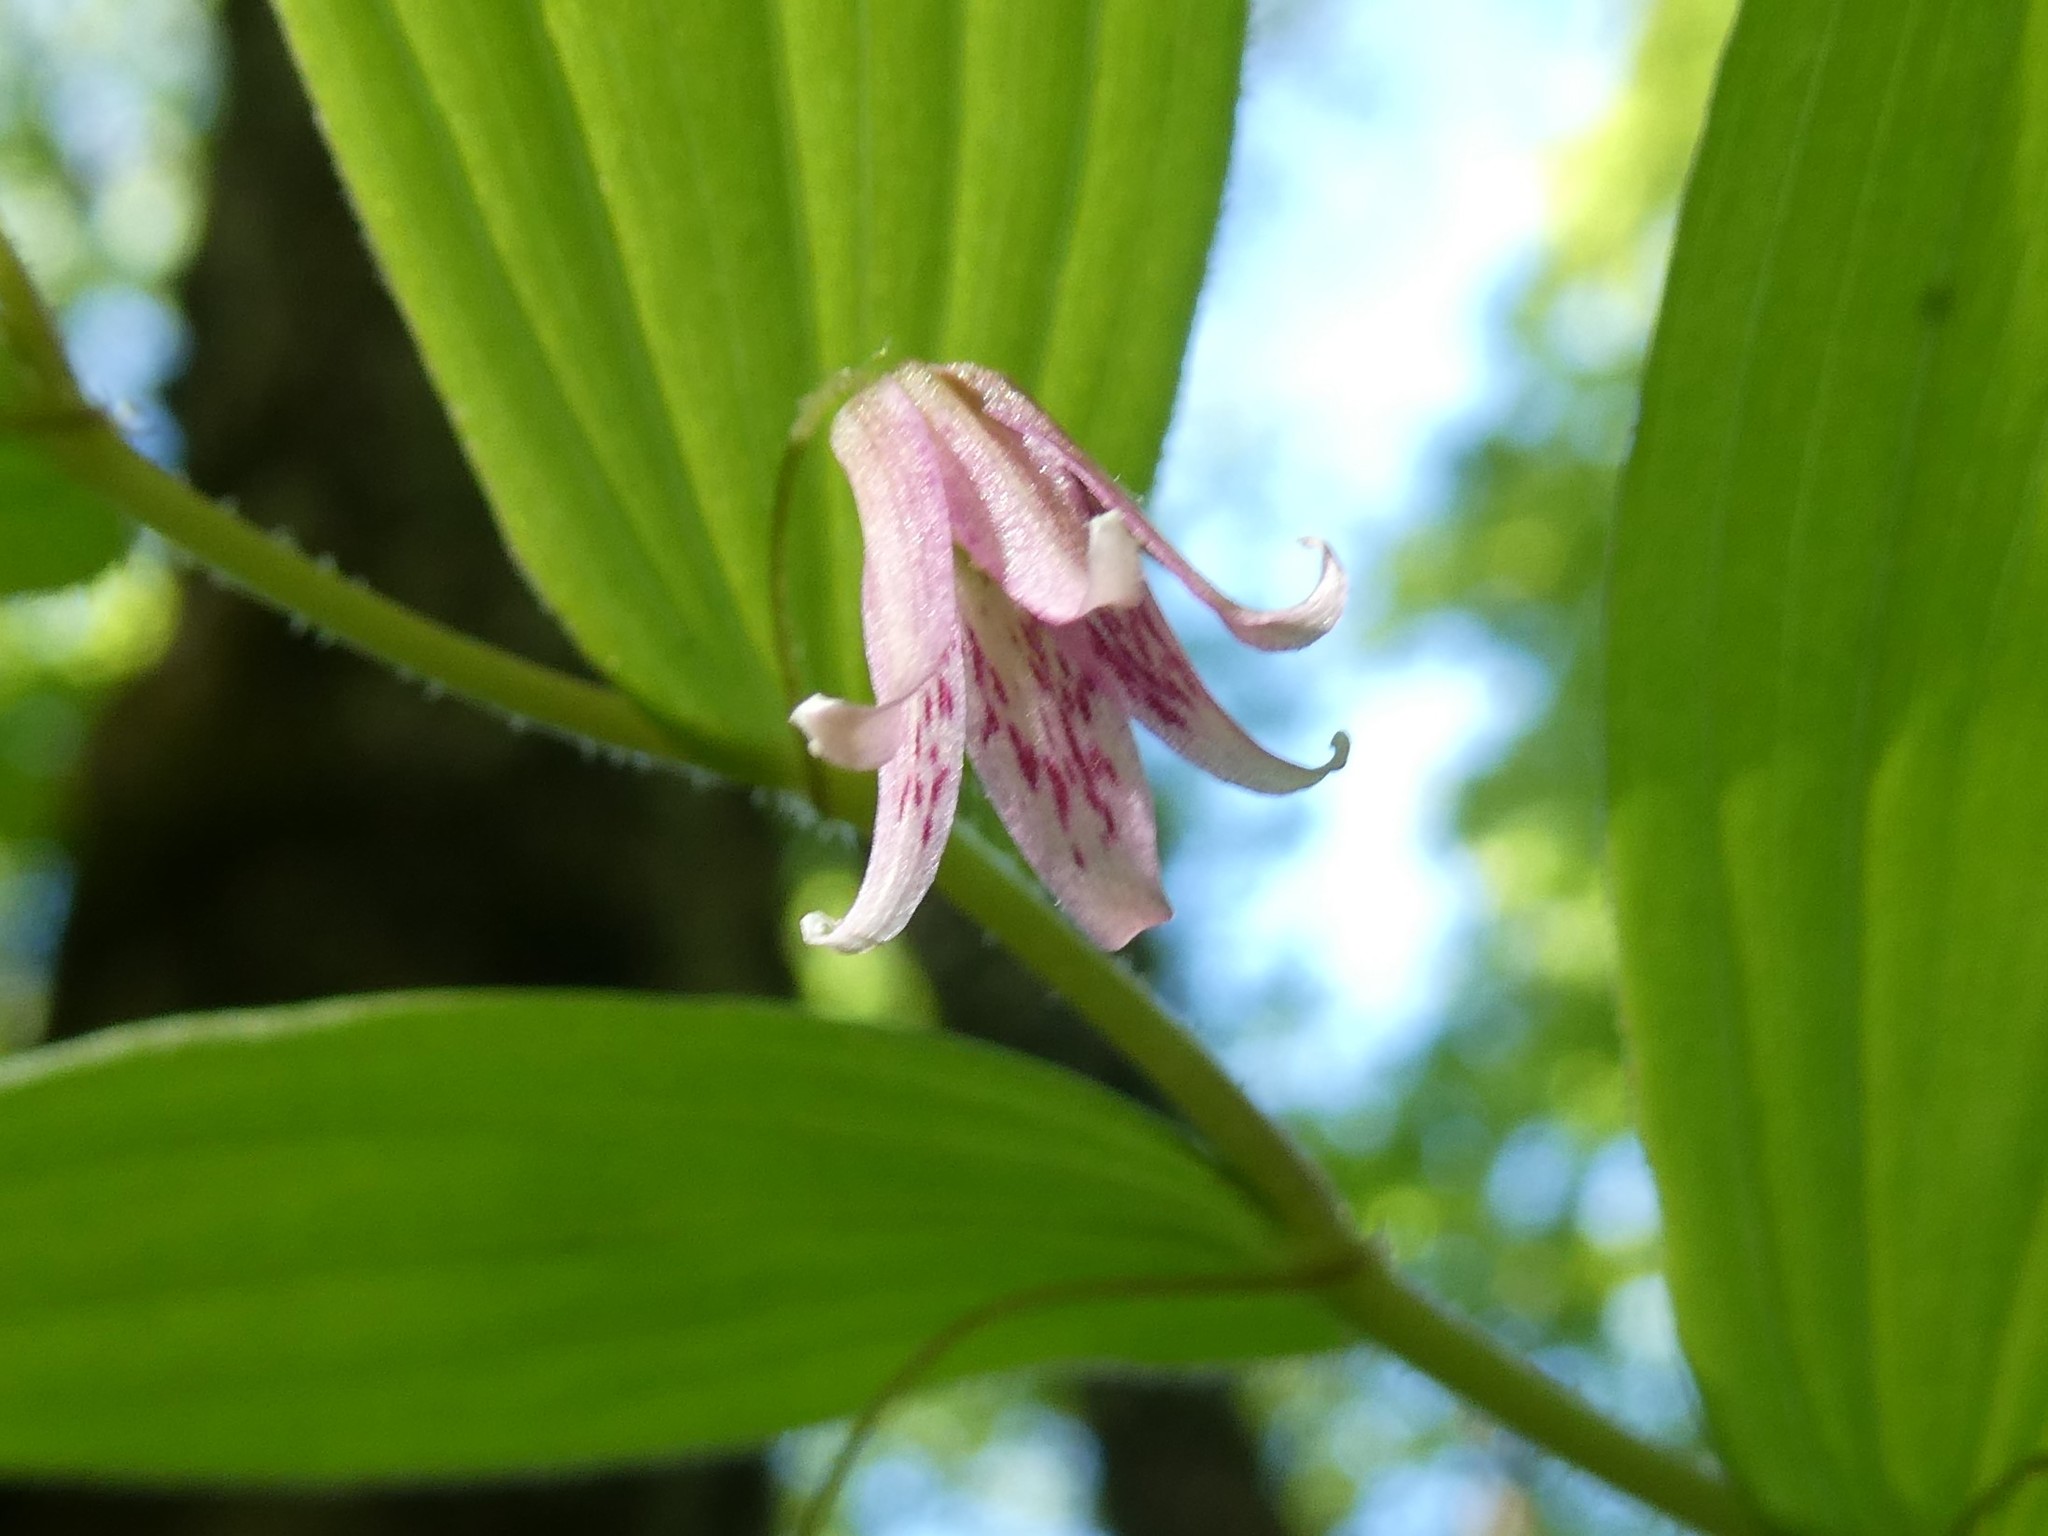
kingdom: Plantae
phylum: Tracheophyta
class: Liliopsida
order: Liliales
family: Liliaceae
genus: Streptopus
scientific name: Streptopus lanceolatus
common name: Rose mandarin
